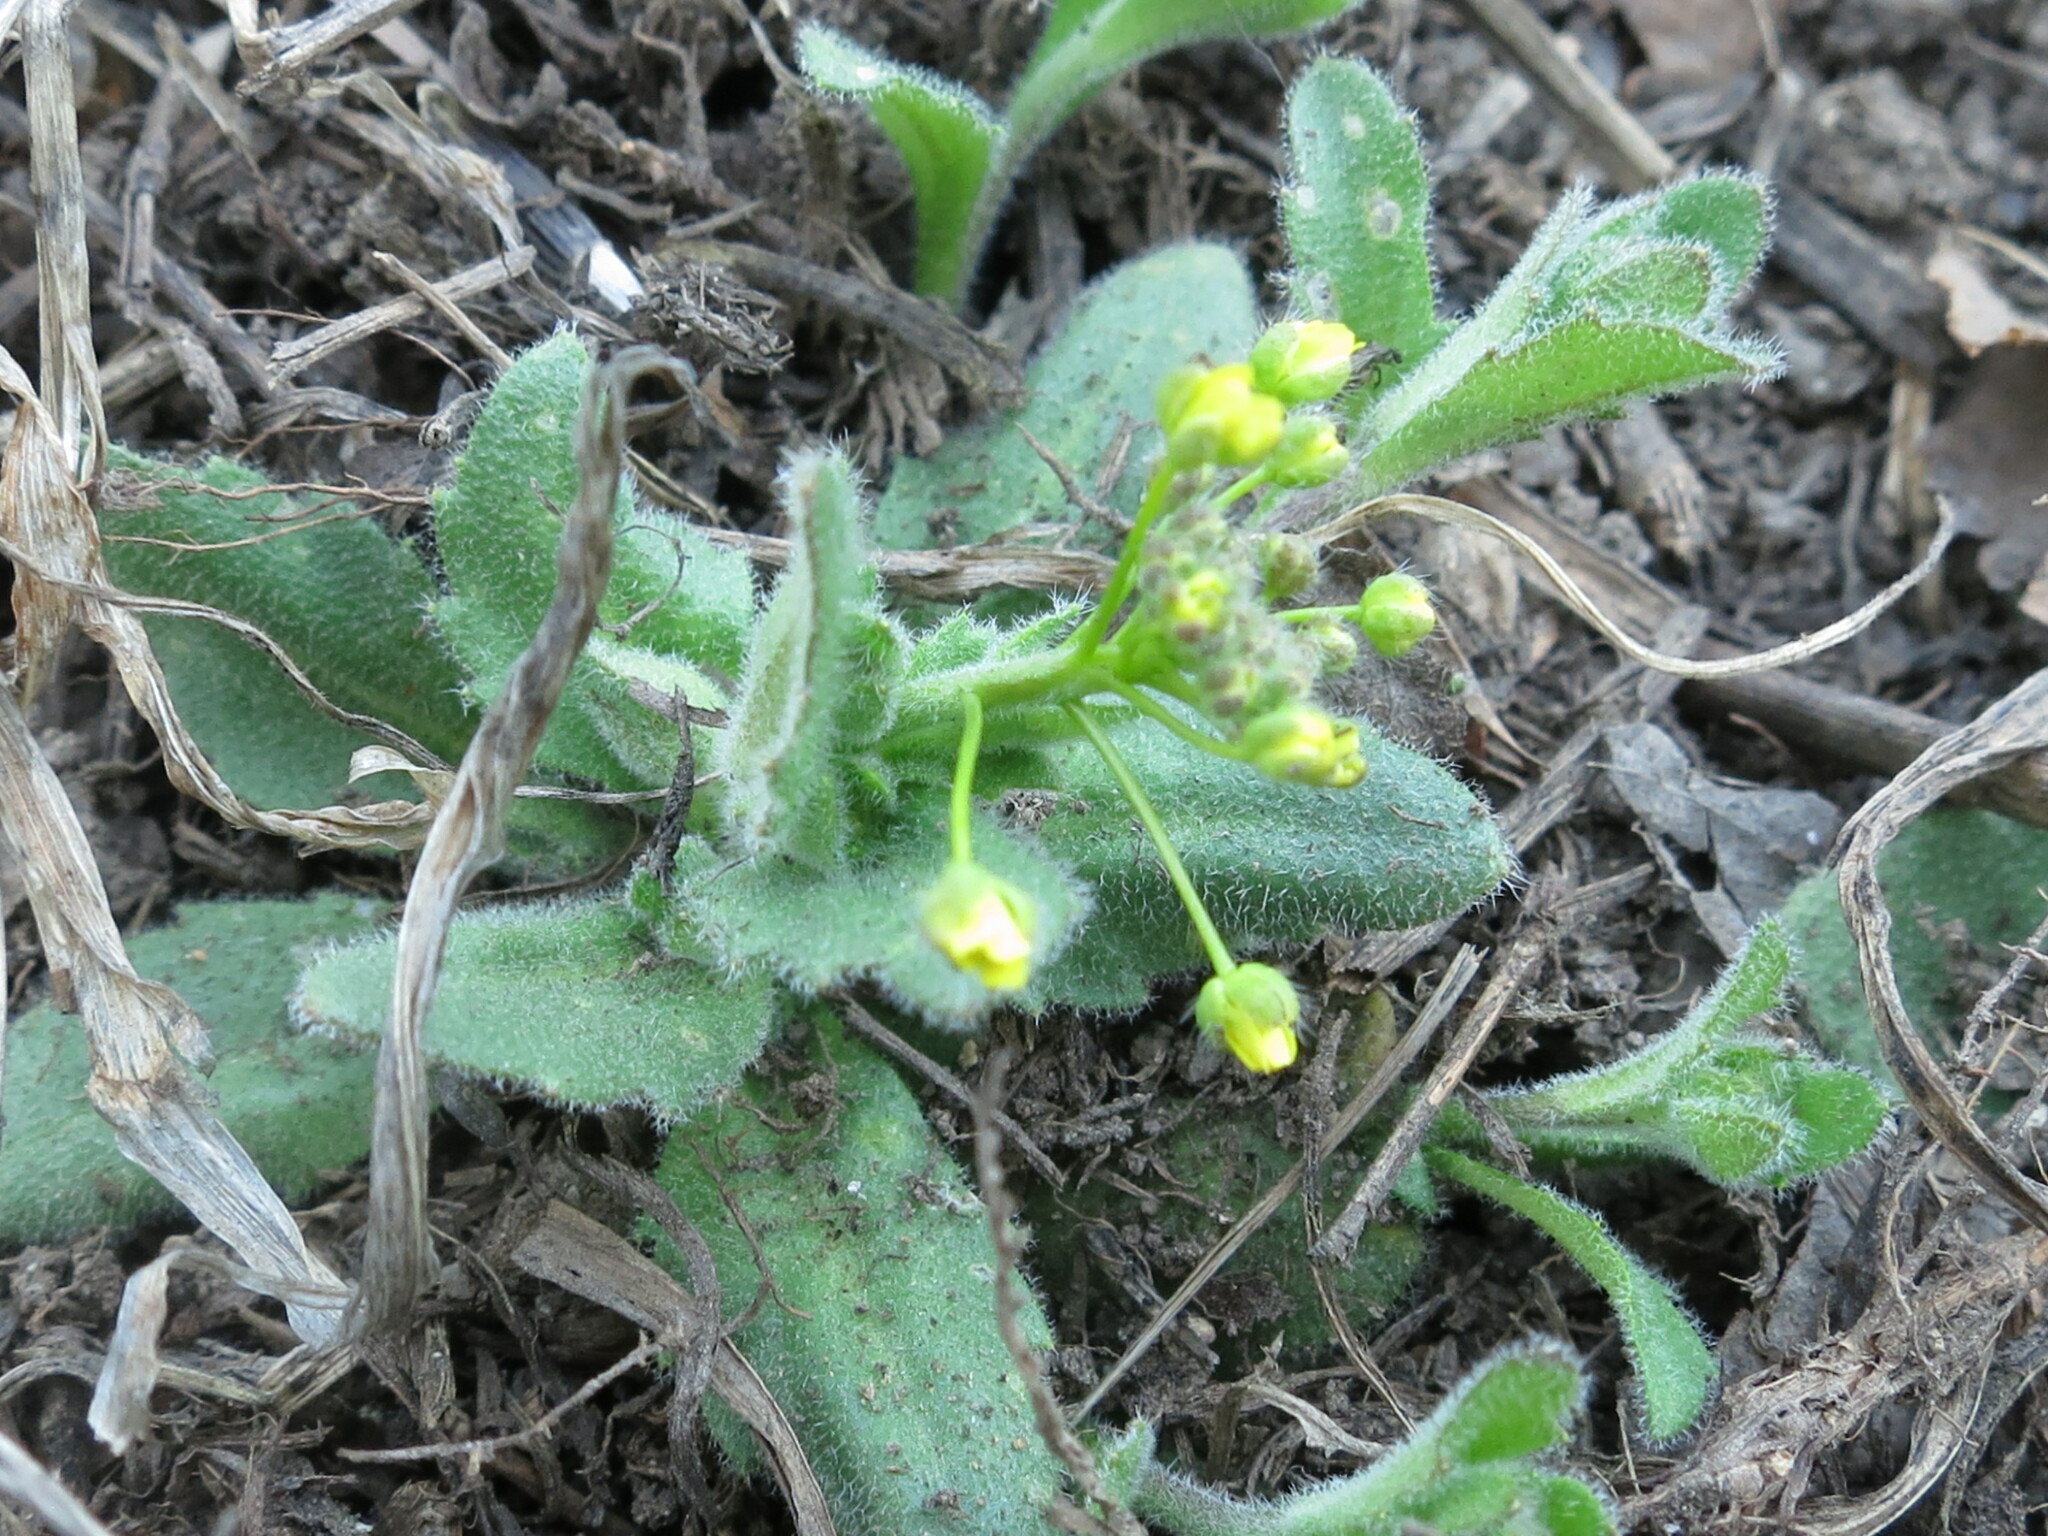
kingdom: Plantae
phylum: Tracheophyta
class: Magnoliopsida
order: Brassicales
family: Brassicaceae
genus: Draba
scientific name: Draba nemorosa
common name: Wood whitlow-grass
